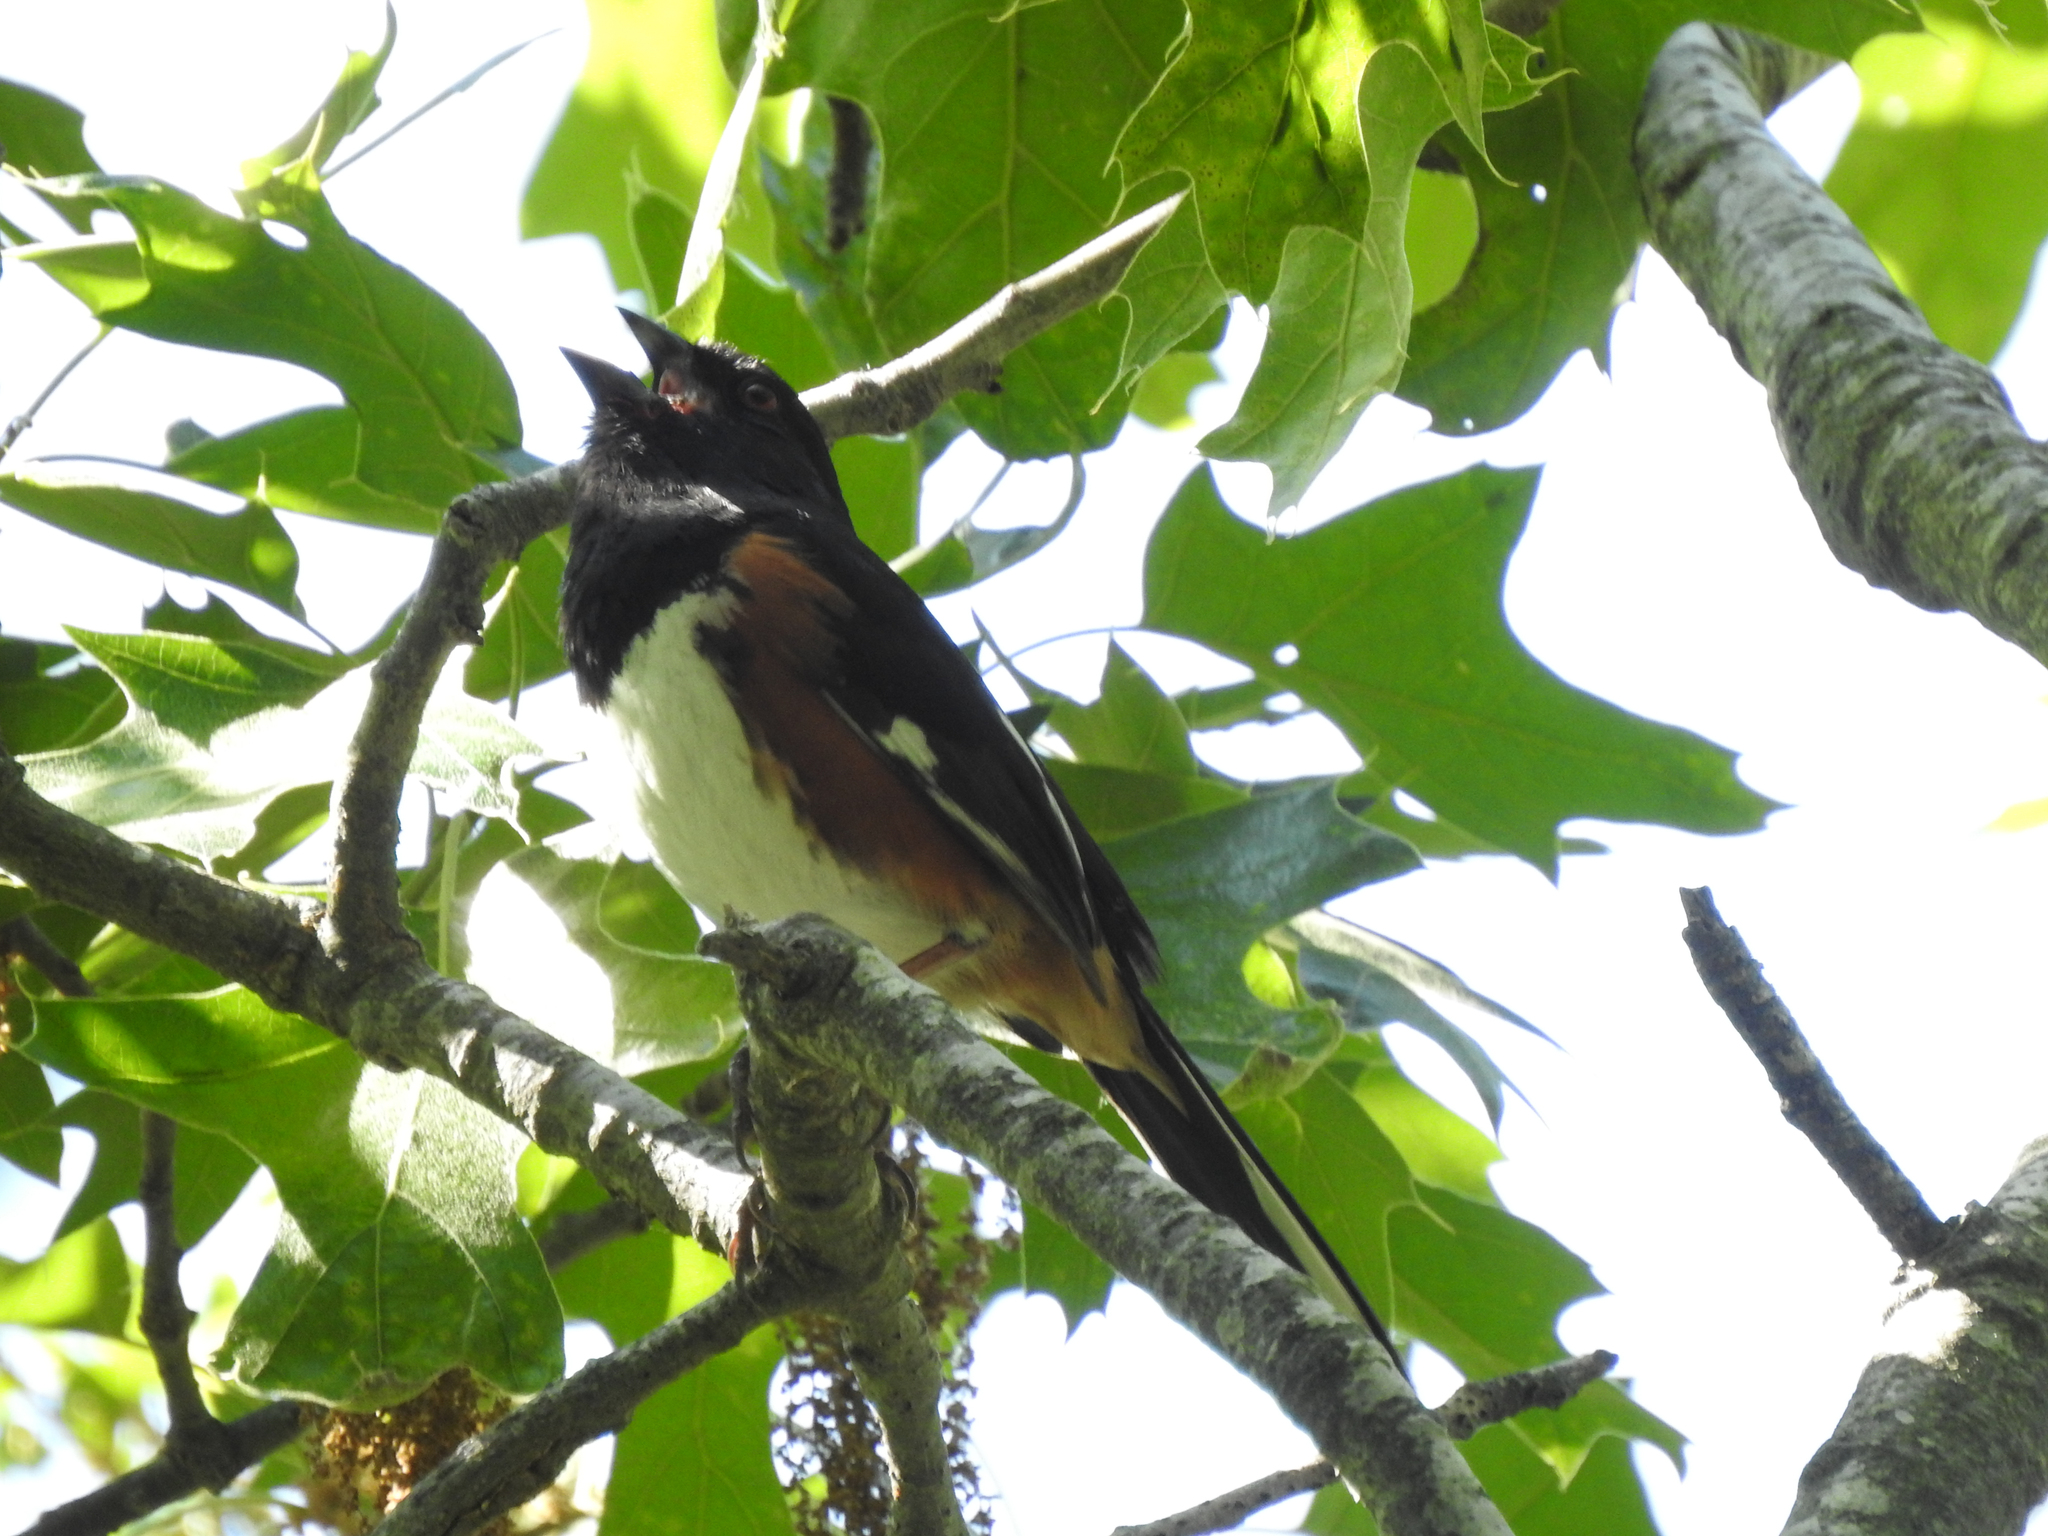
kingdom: Animalia
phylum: Chordata
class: Aves
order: Passeriformes
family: Passerellidae
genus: Pipilo
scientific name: Pipilo erythrophthalmus
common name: Eastern towhee
